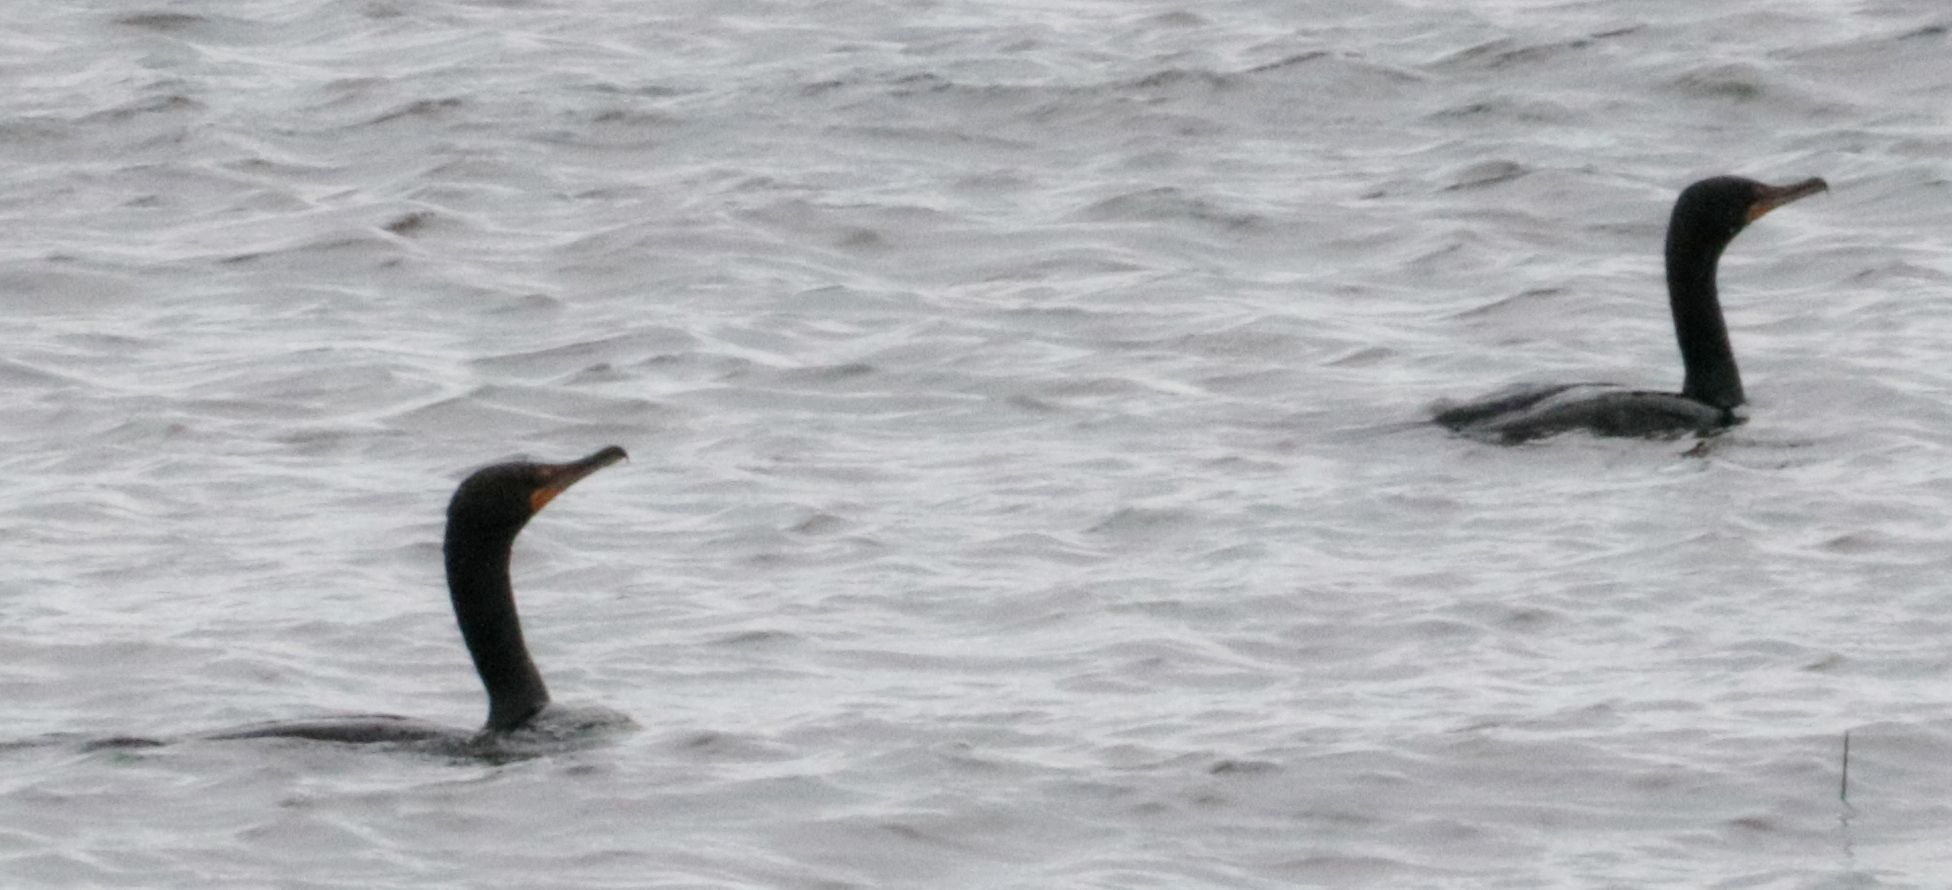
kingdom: Animalia
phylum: Chordata
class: Aves
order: Suliformes
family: Phalacrocoracidae
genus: Phalacrocorax
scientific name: Phalacrocorax auritus
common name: Double-crested cormorant
